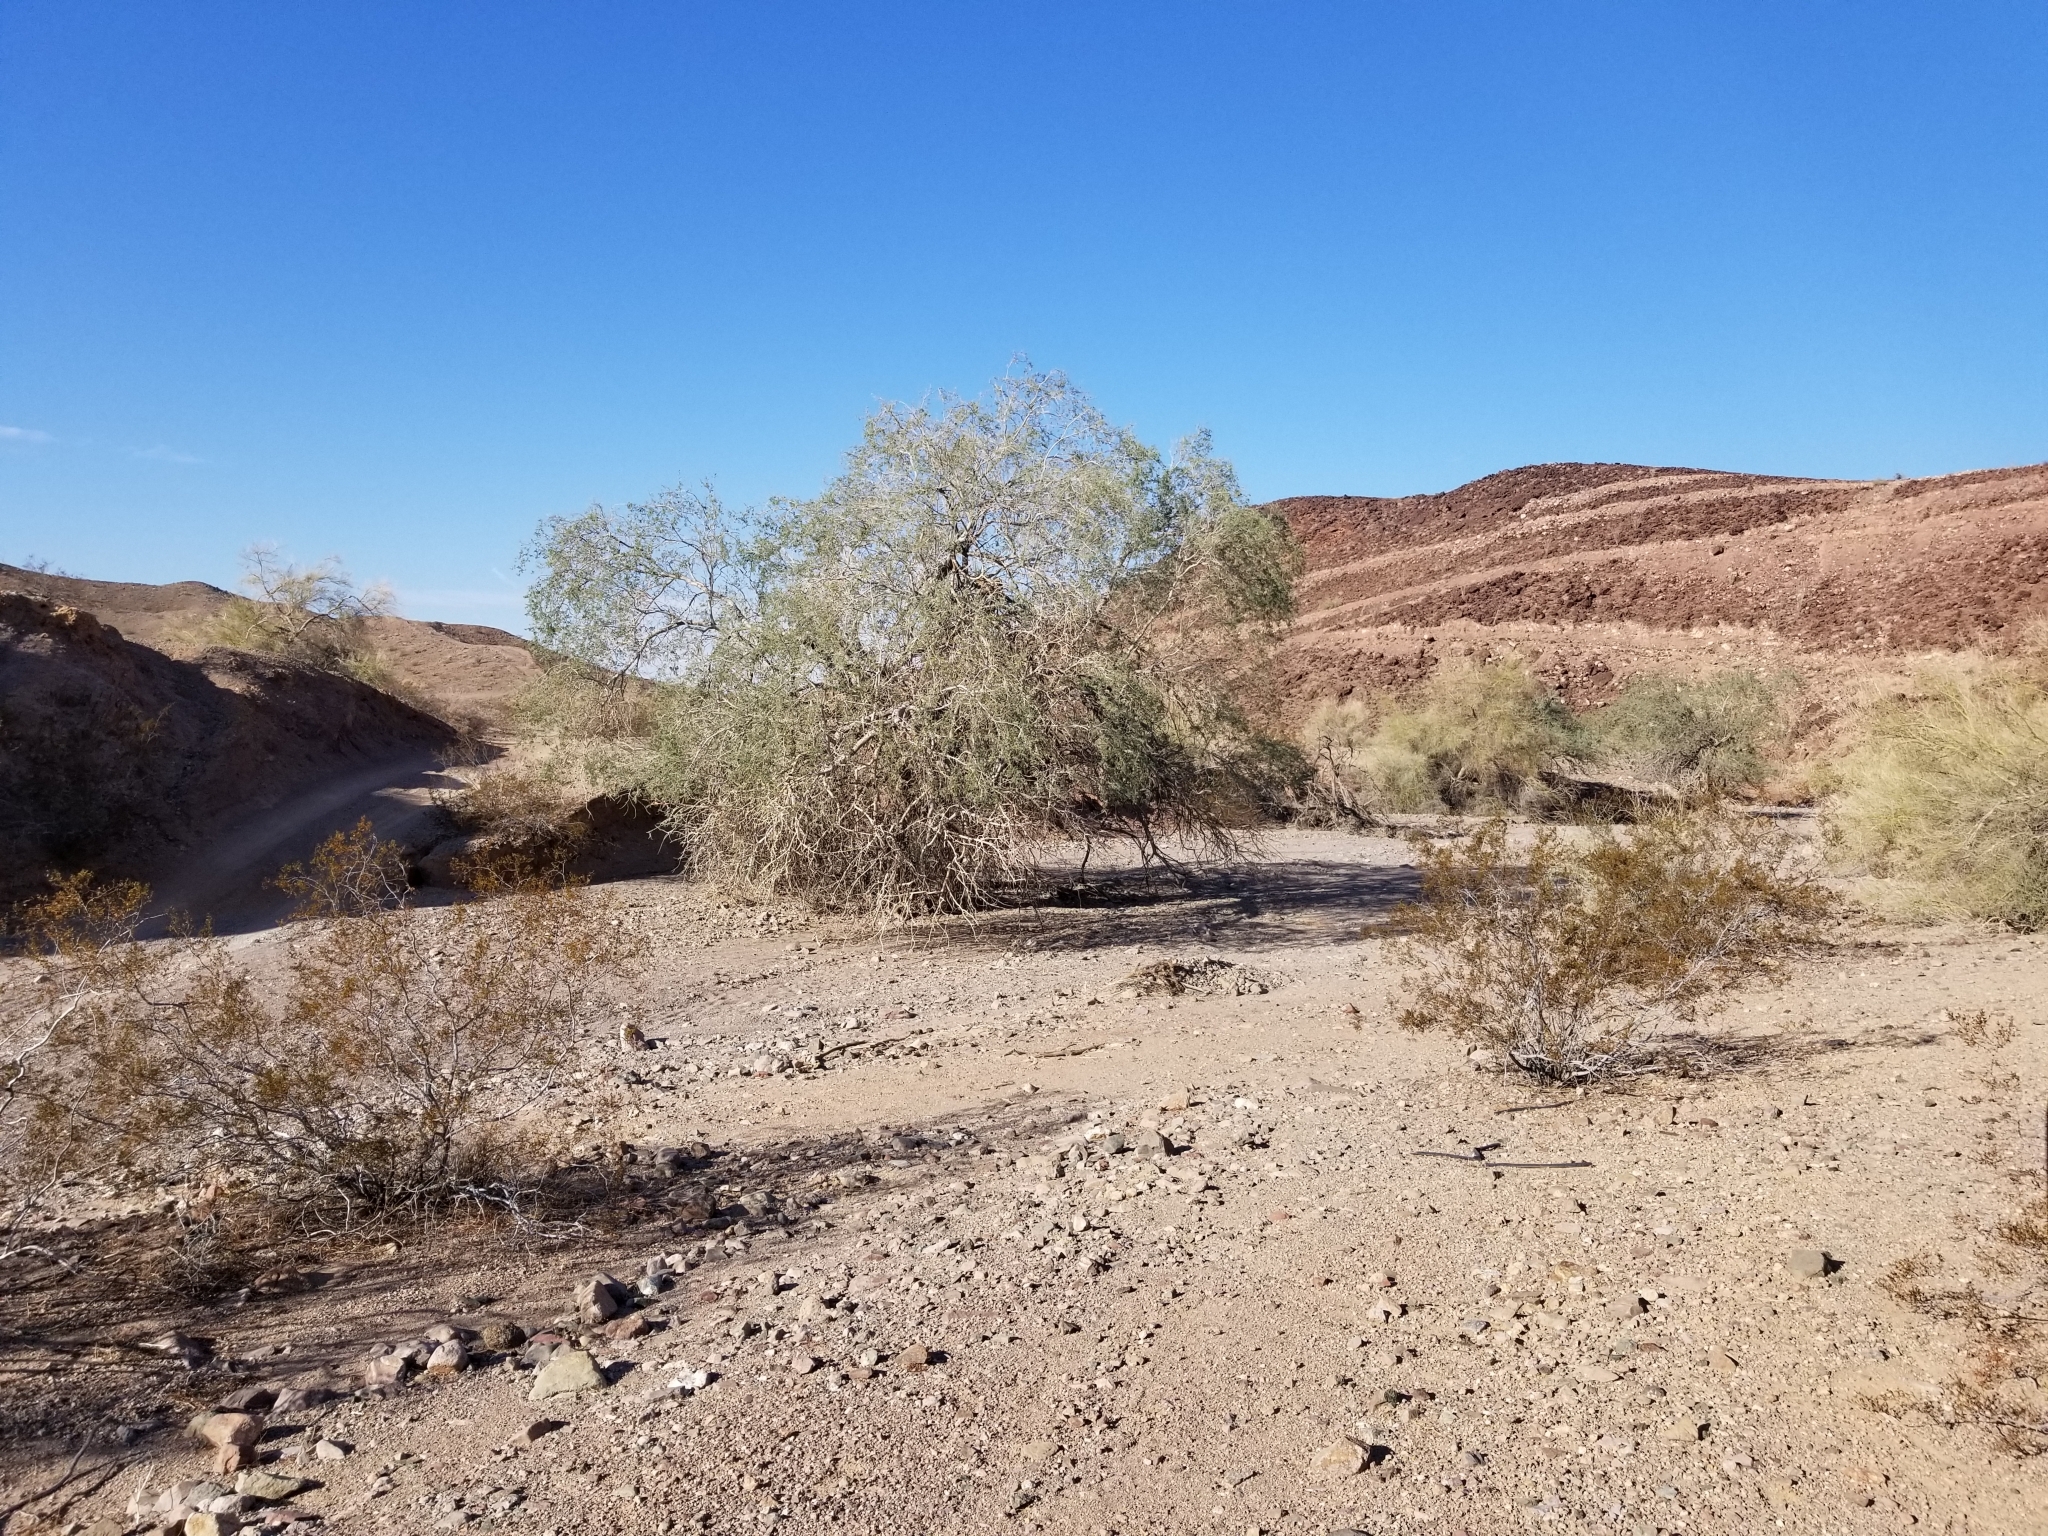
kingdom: Plantae
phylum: Tracheophyta
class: Magnoliopsida
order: Fabales
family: Fabaceae
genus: Olneya
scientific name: Olneya tesota
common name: Desert ironwood
